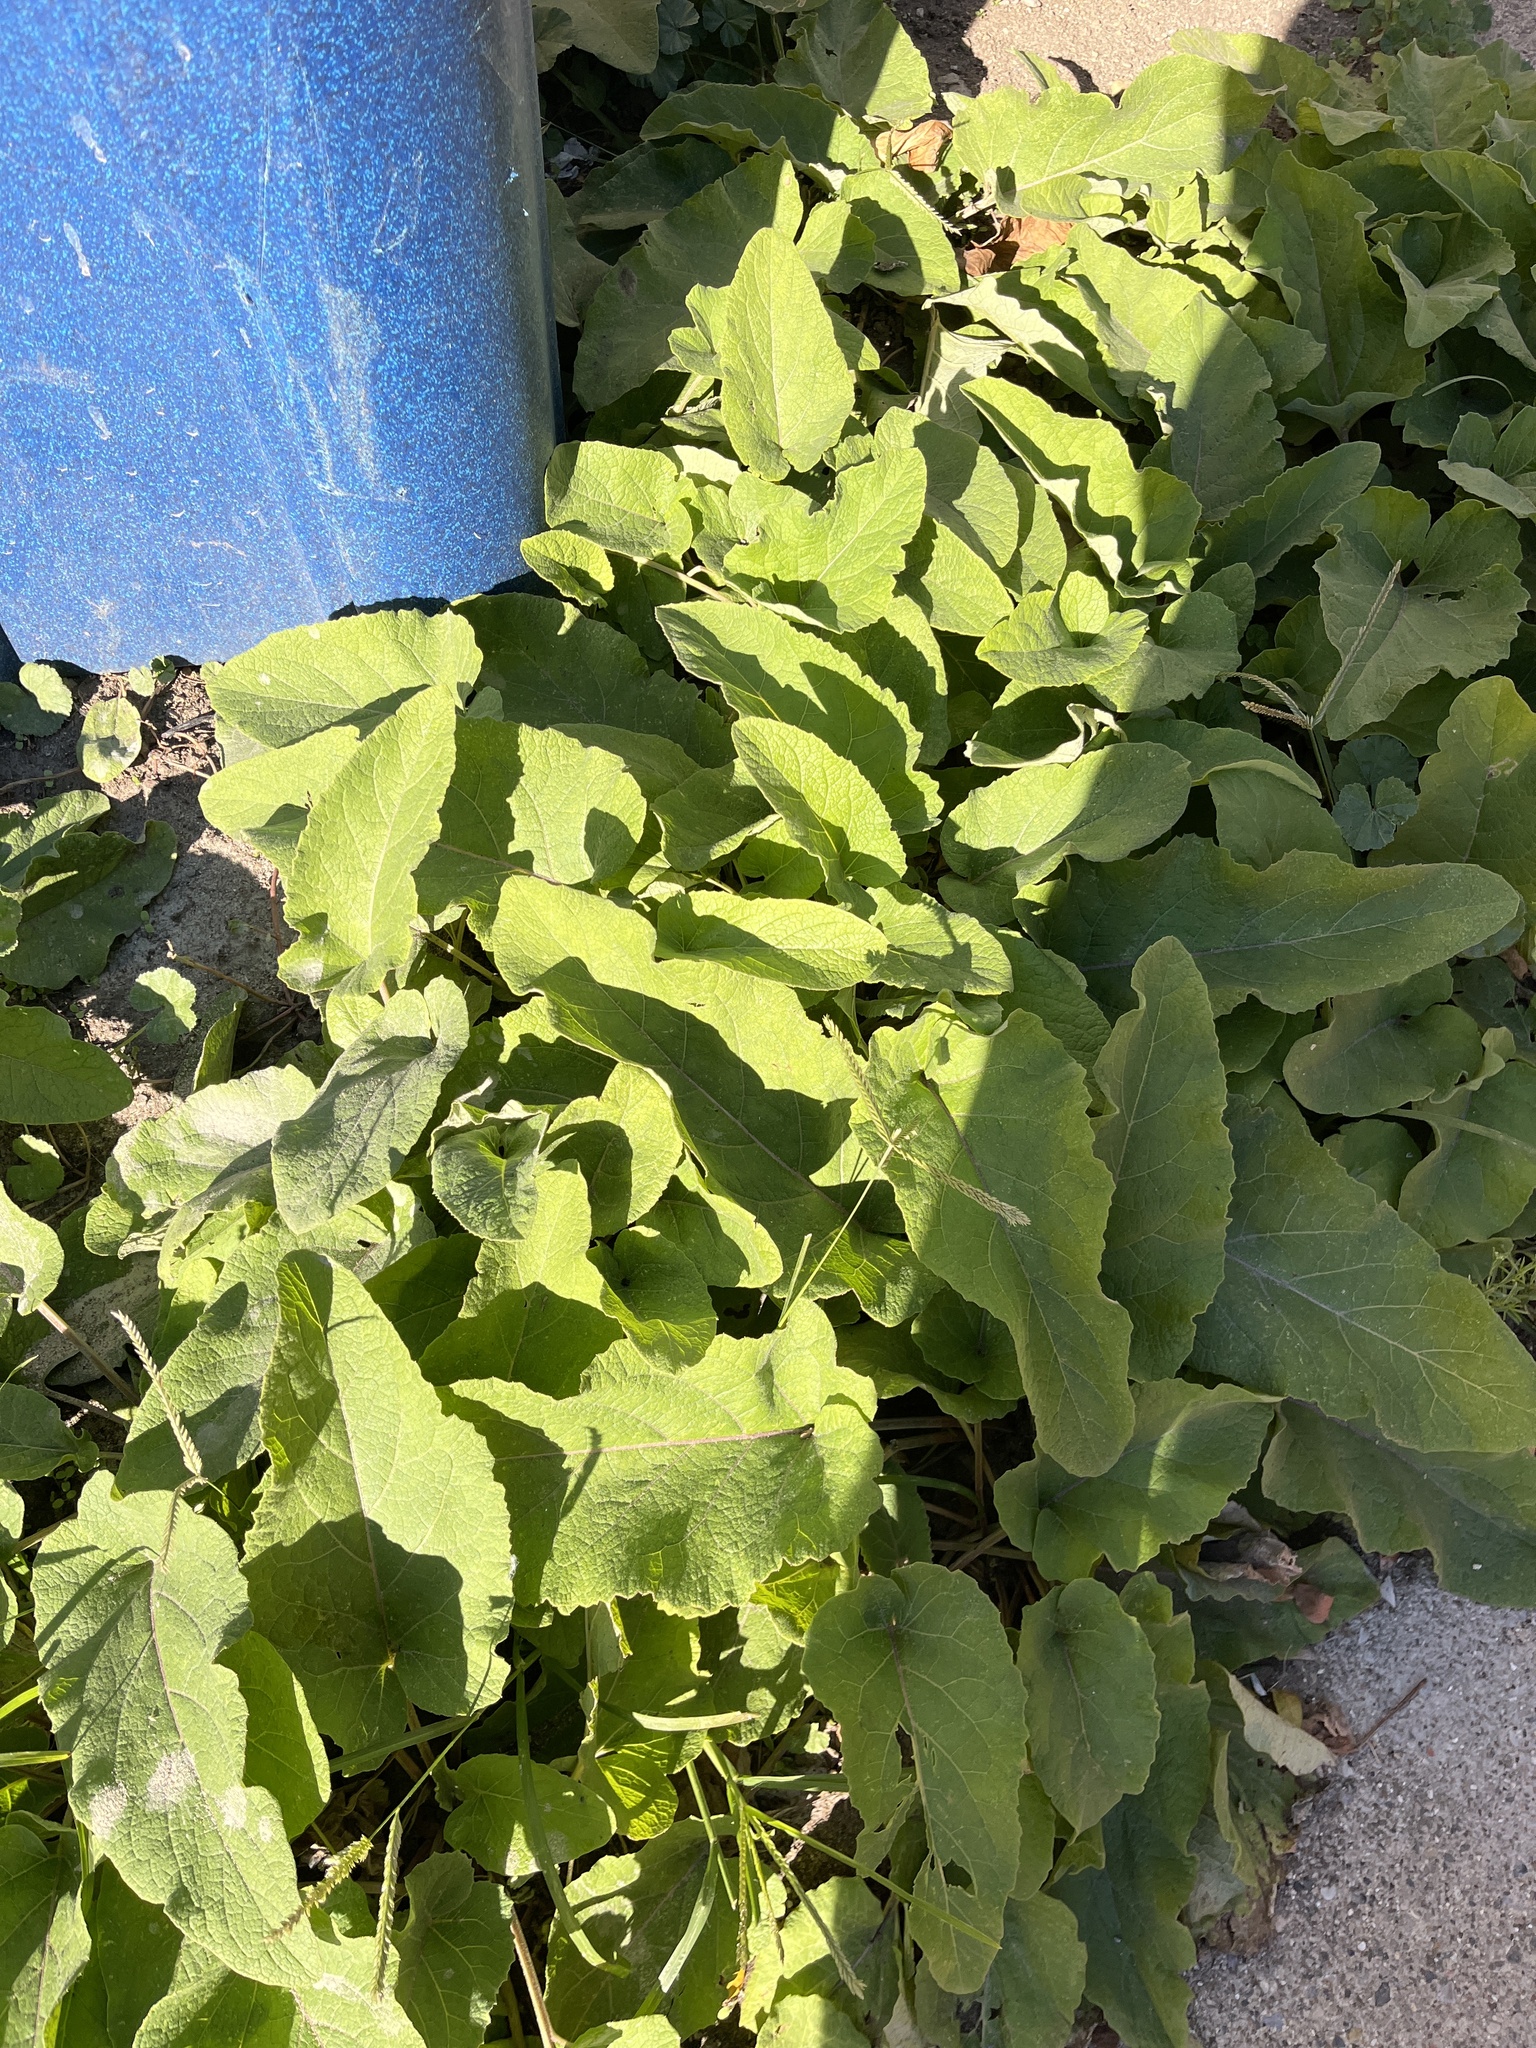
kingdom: Plantae
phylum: Tracheophyta
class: Magnoliopsida
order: Asterales
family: Asteraceae
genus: Arctium
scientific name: Arctium
